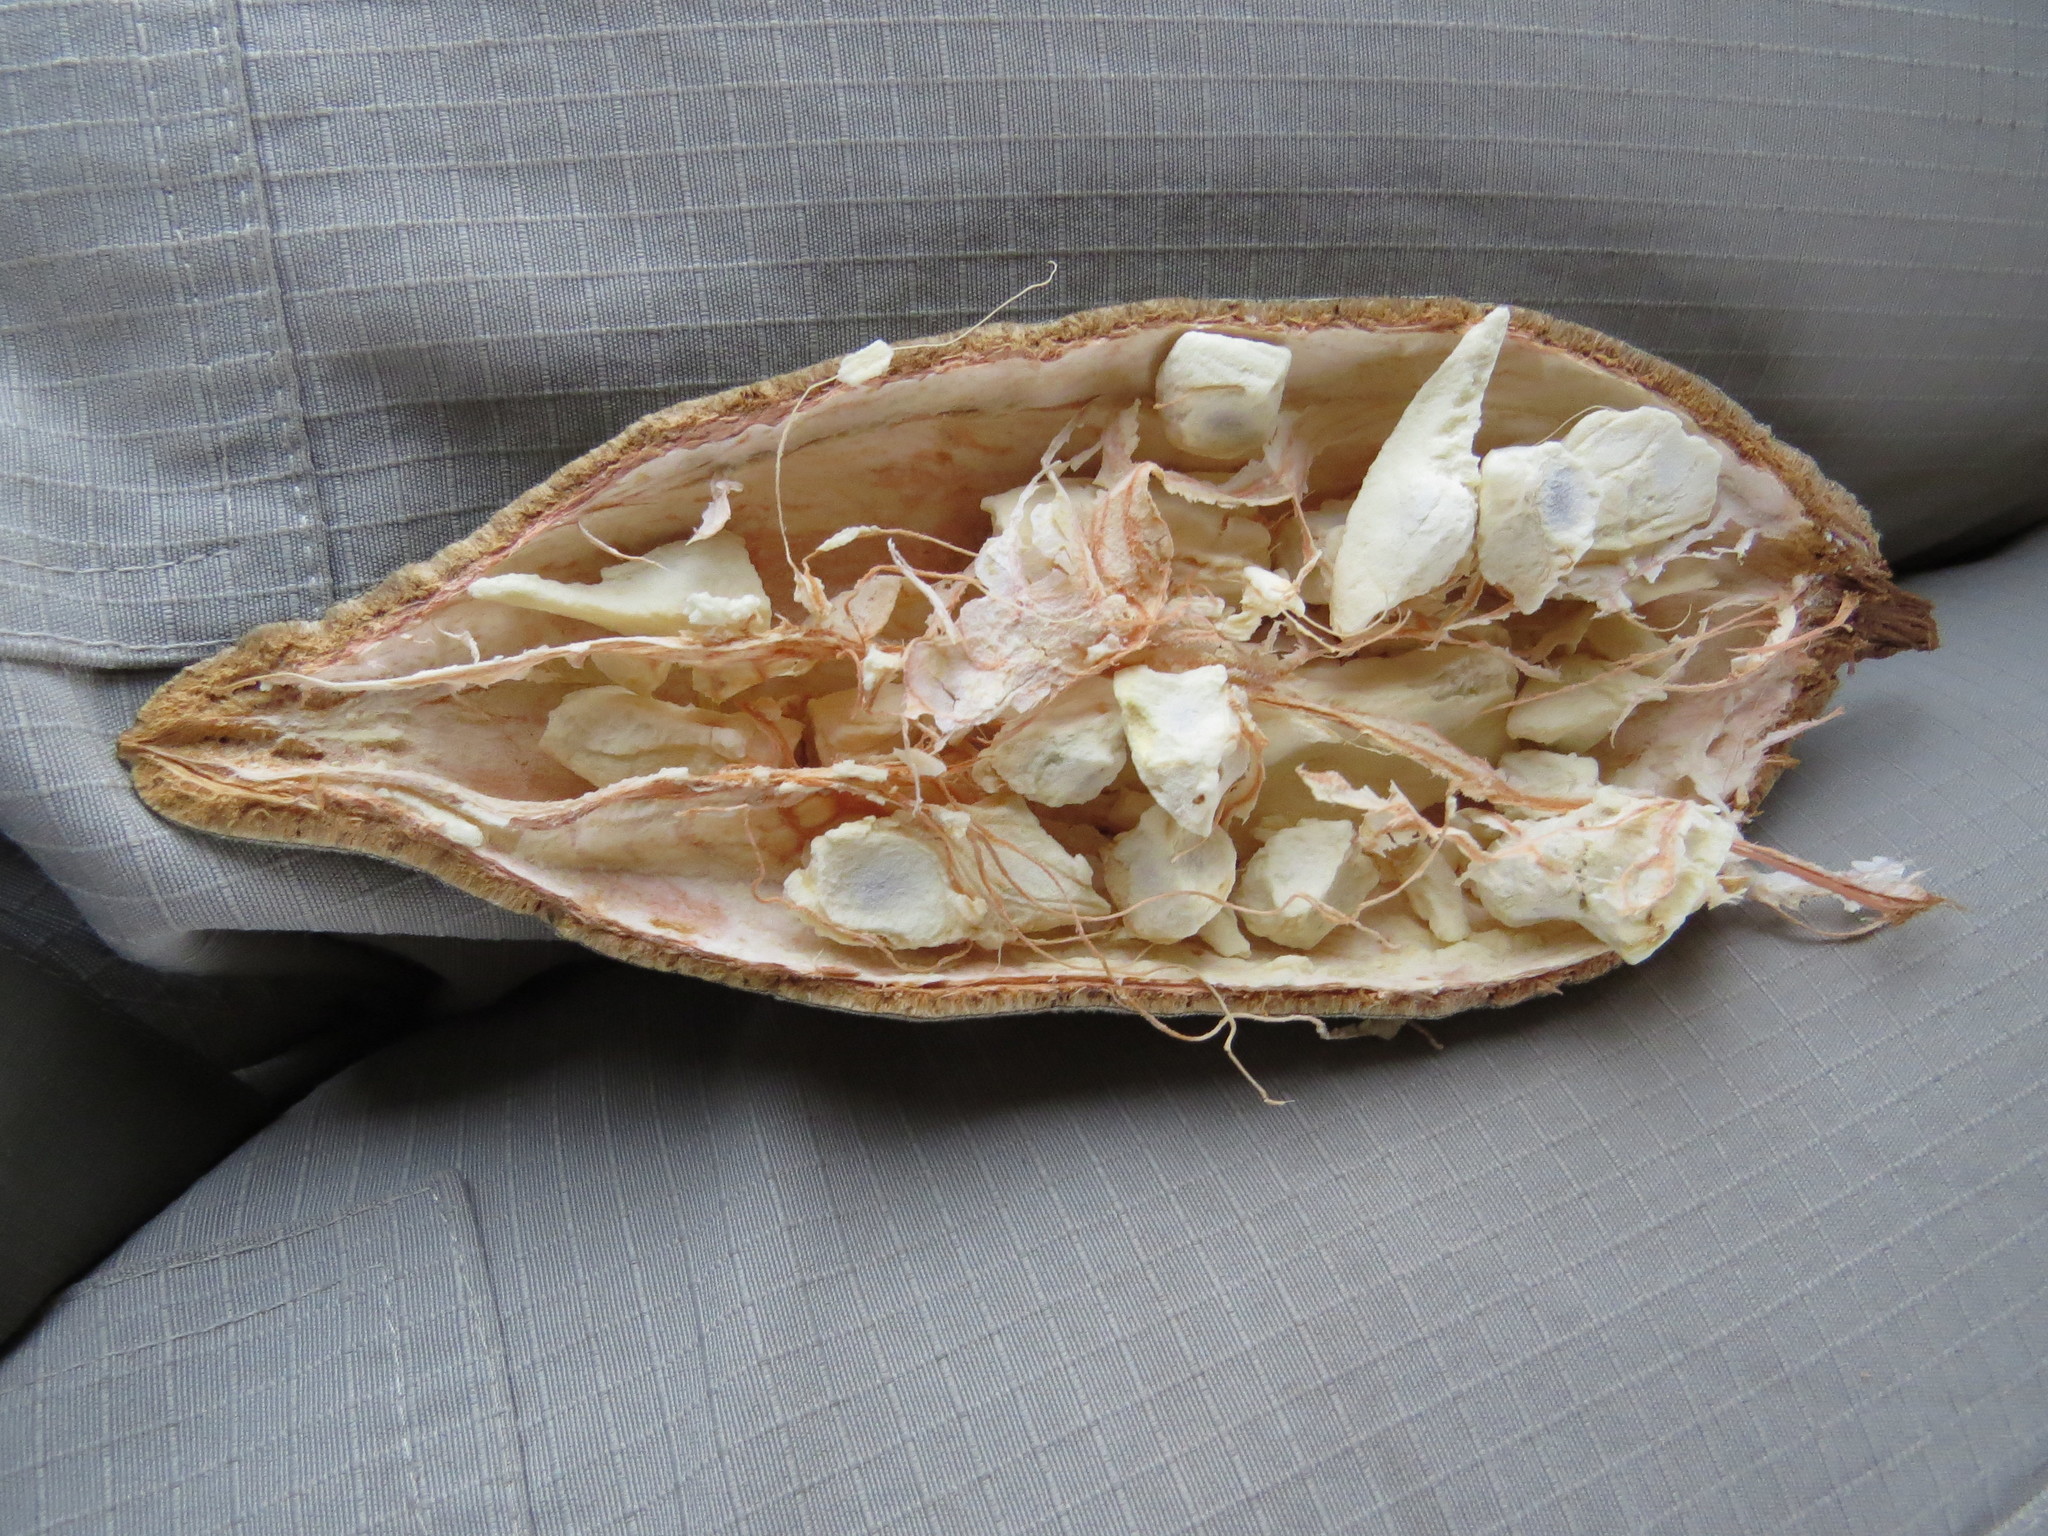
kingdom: Plantae
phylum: Tracheophyta
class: Magnoliopsida
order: Malvales
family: Malvaceae
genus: Adansonia
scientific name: Adansonia digitata
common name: Dead-rat-tree
